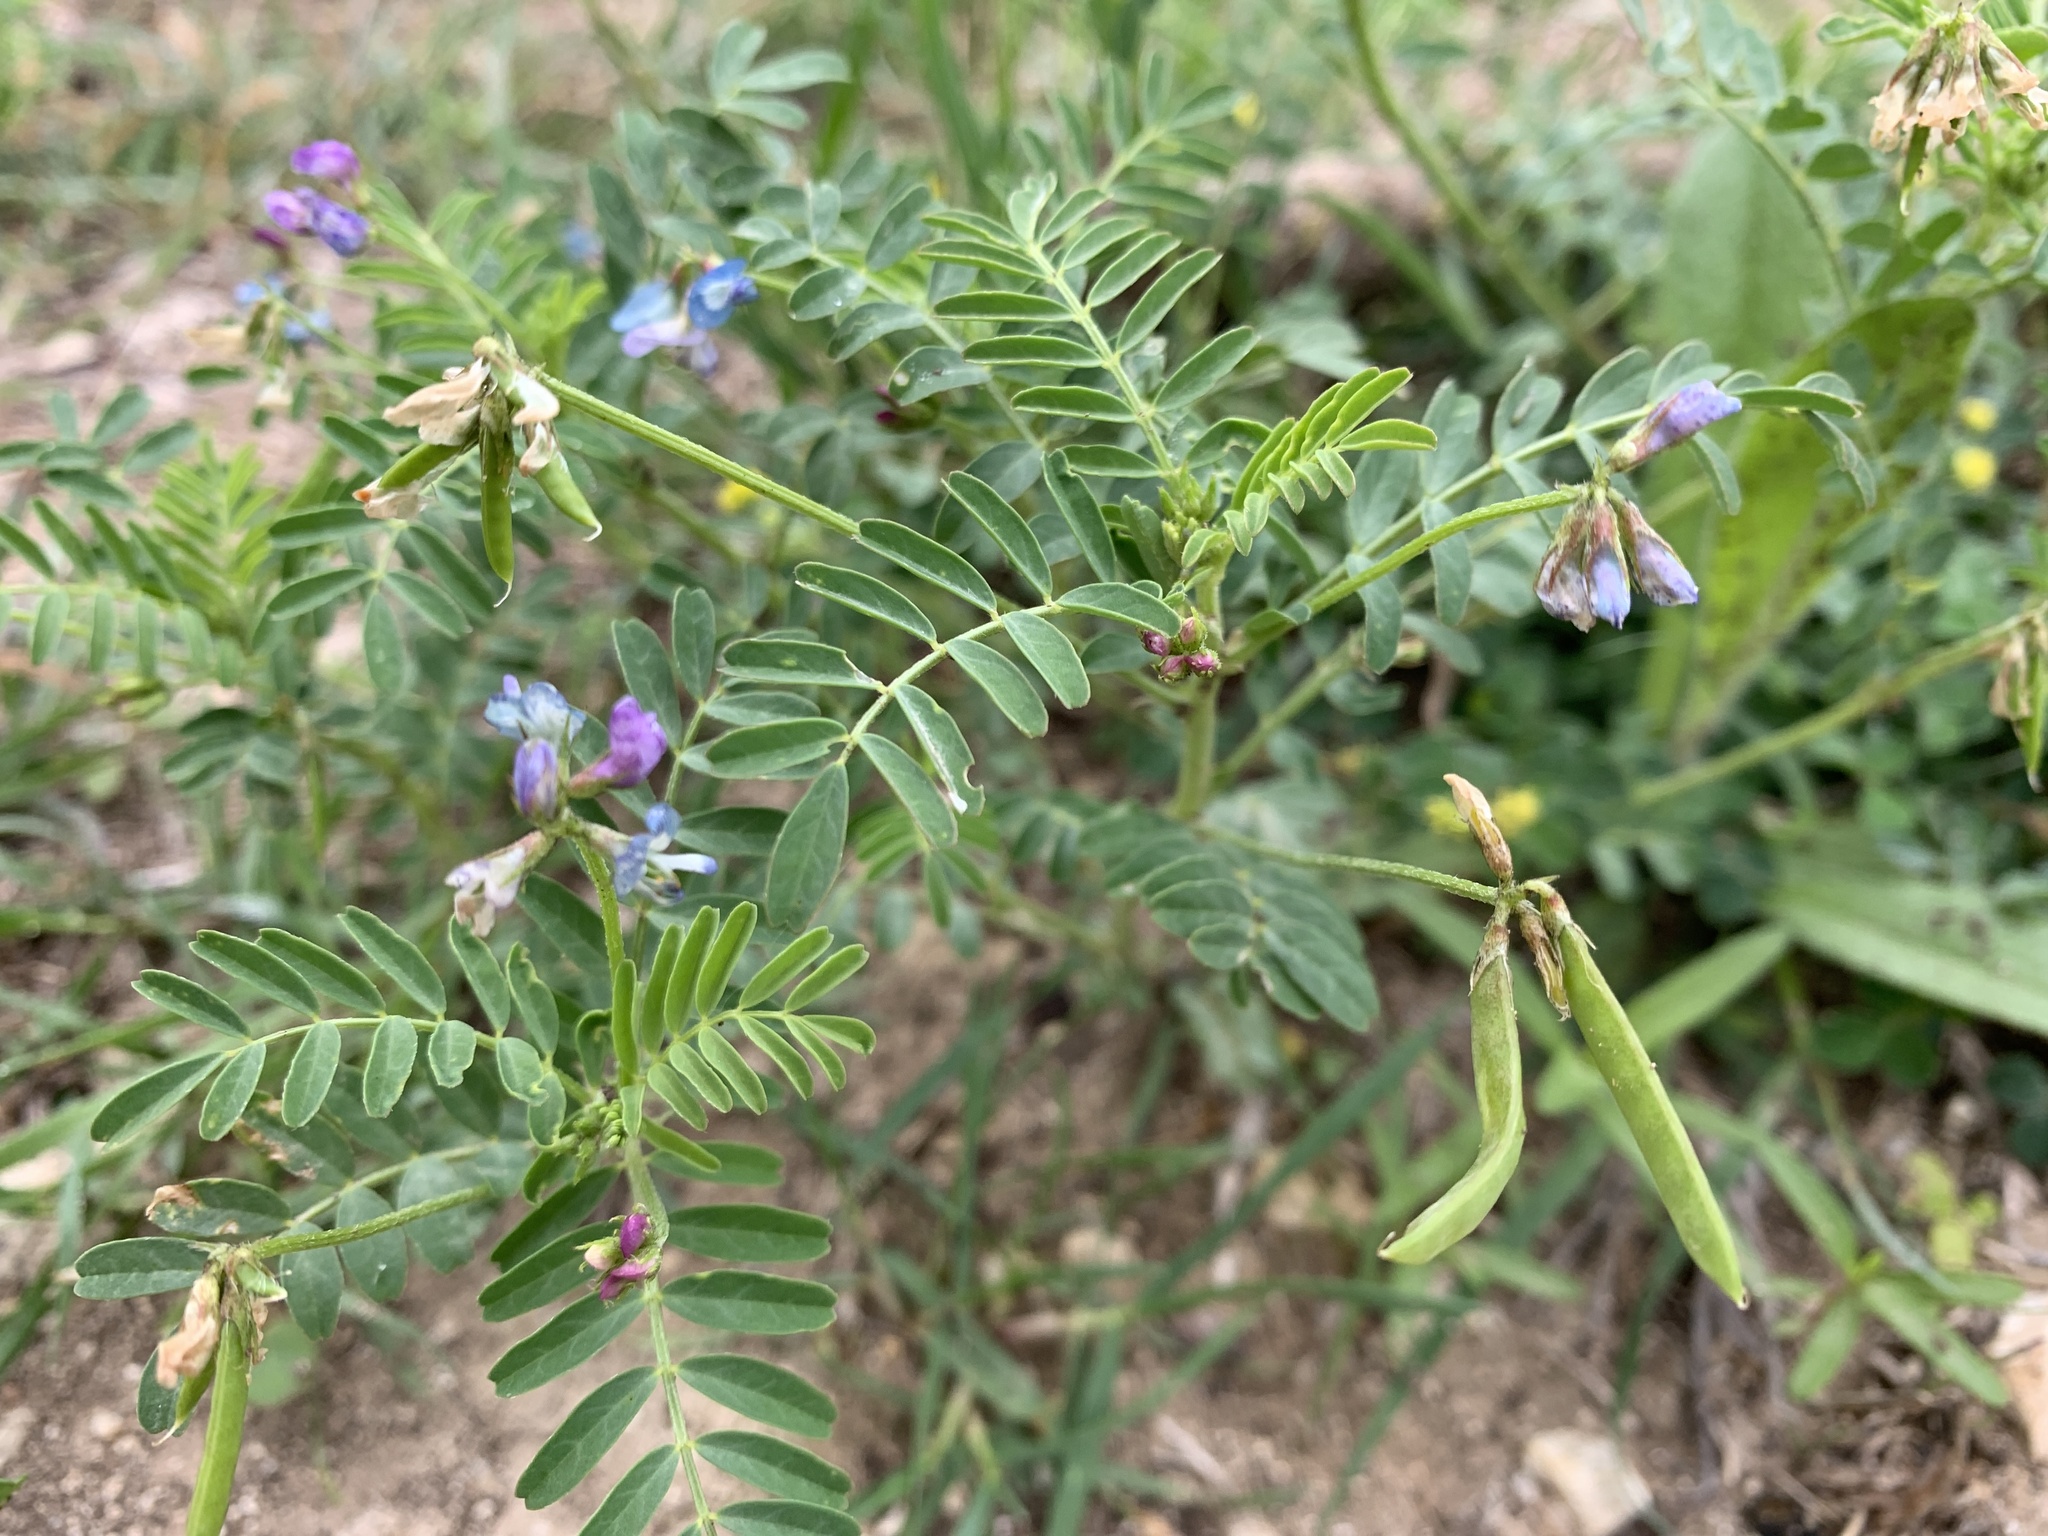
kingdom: Plantae
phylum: Tracheophyta
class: Magnoliopsida
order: Fabales
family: Fabaceae
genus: Astragalus
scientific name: Astragalus nuttallianus
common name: Smallflowered milkvetch
